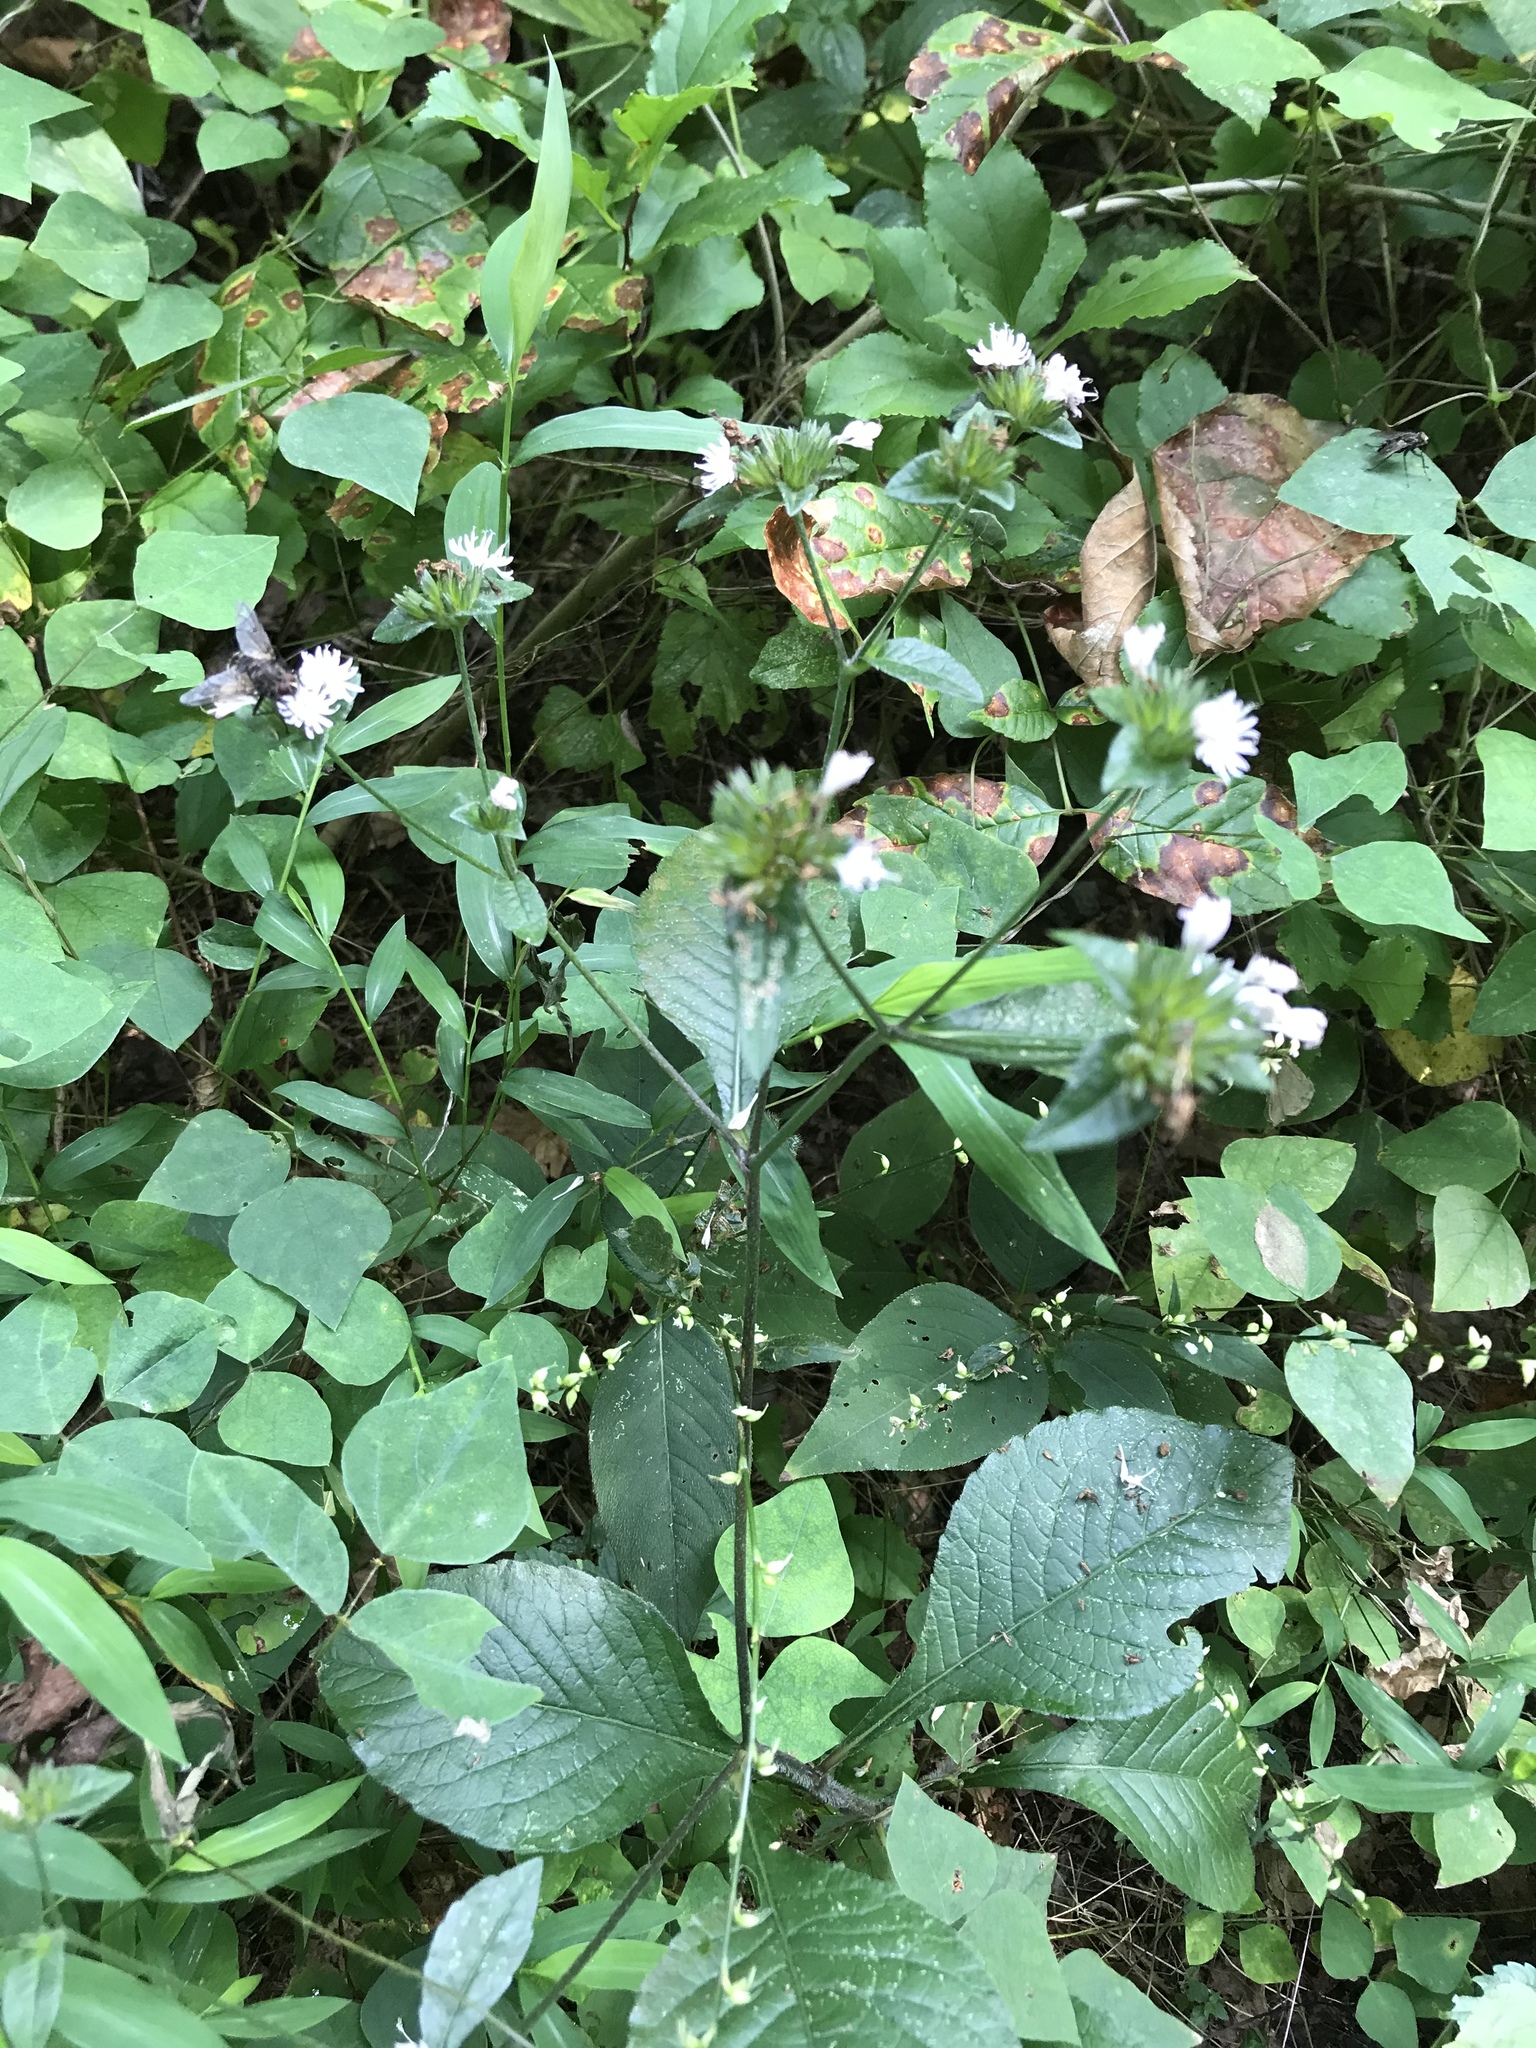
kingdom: Plantae
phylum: Tracheophyta
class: Magnoliopsida
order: Asterales
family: Asteraceae
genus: Elephantopus
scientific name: Elephantopus carolinianus
